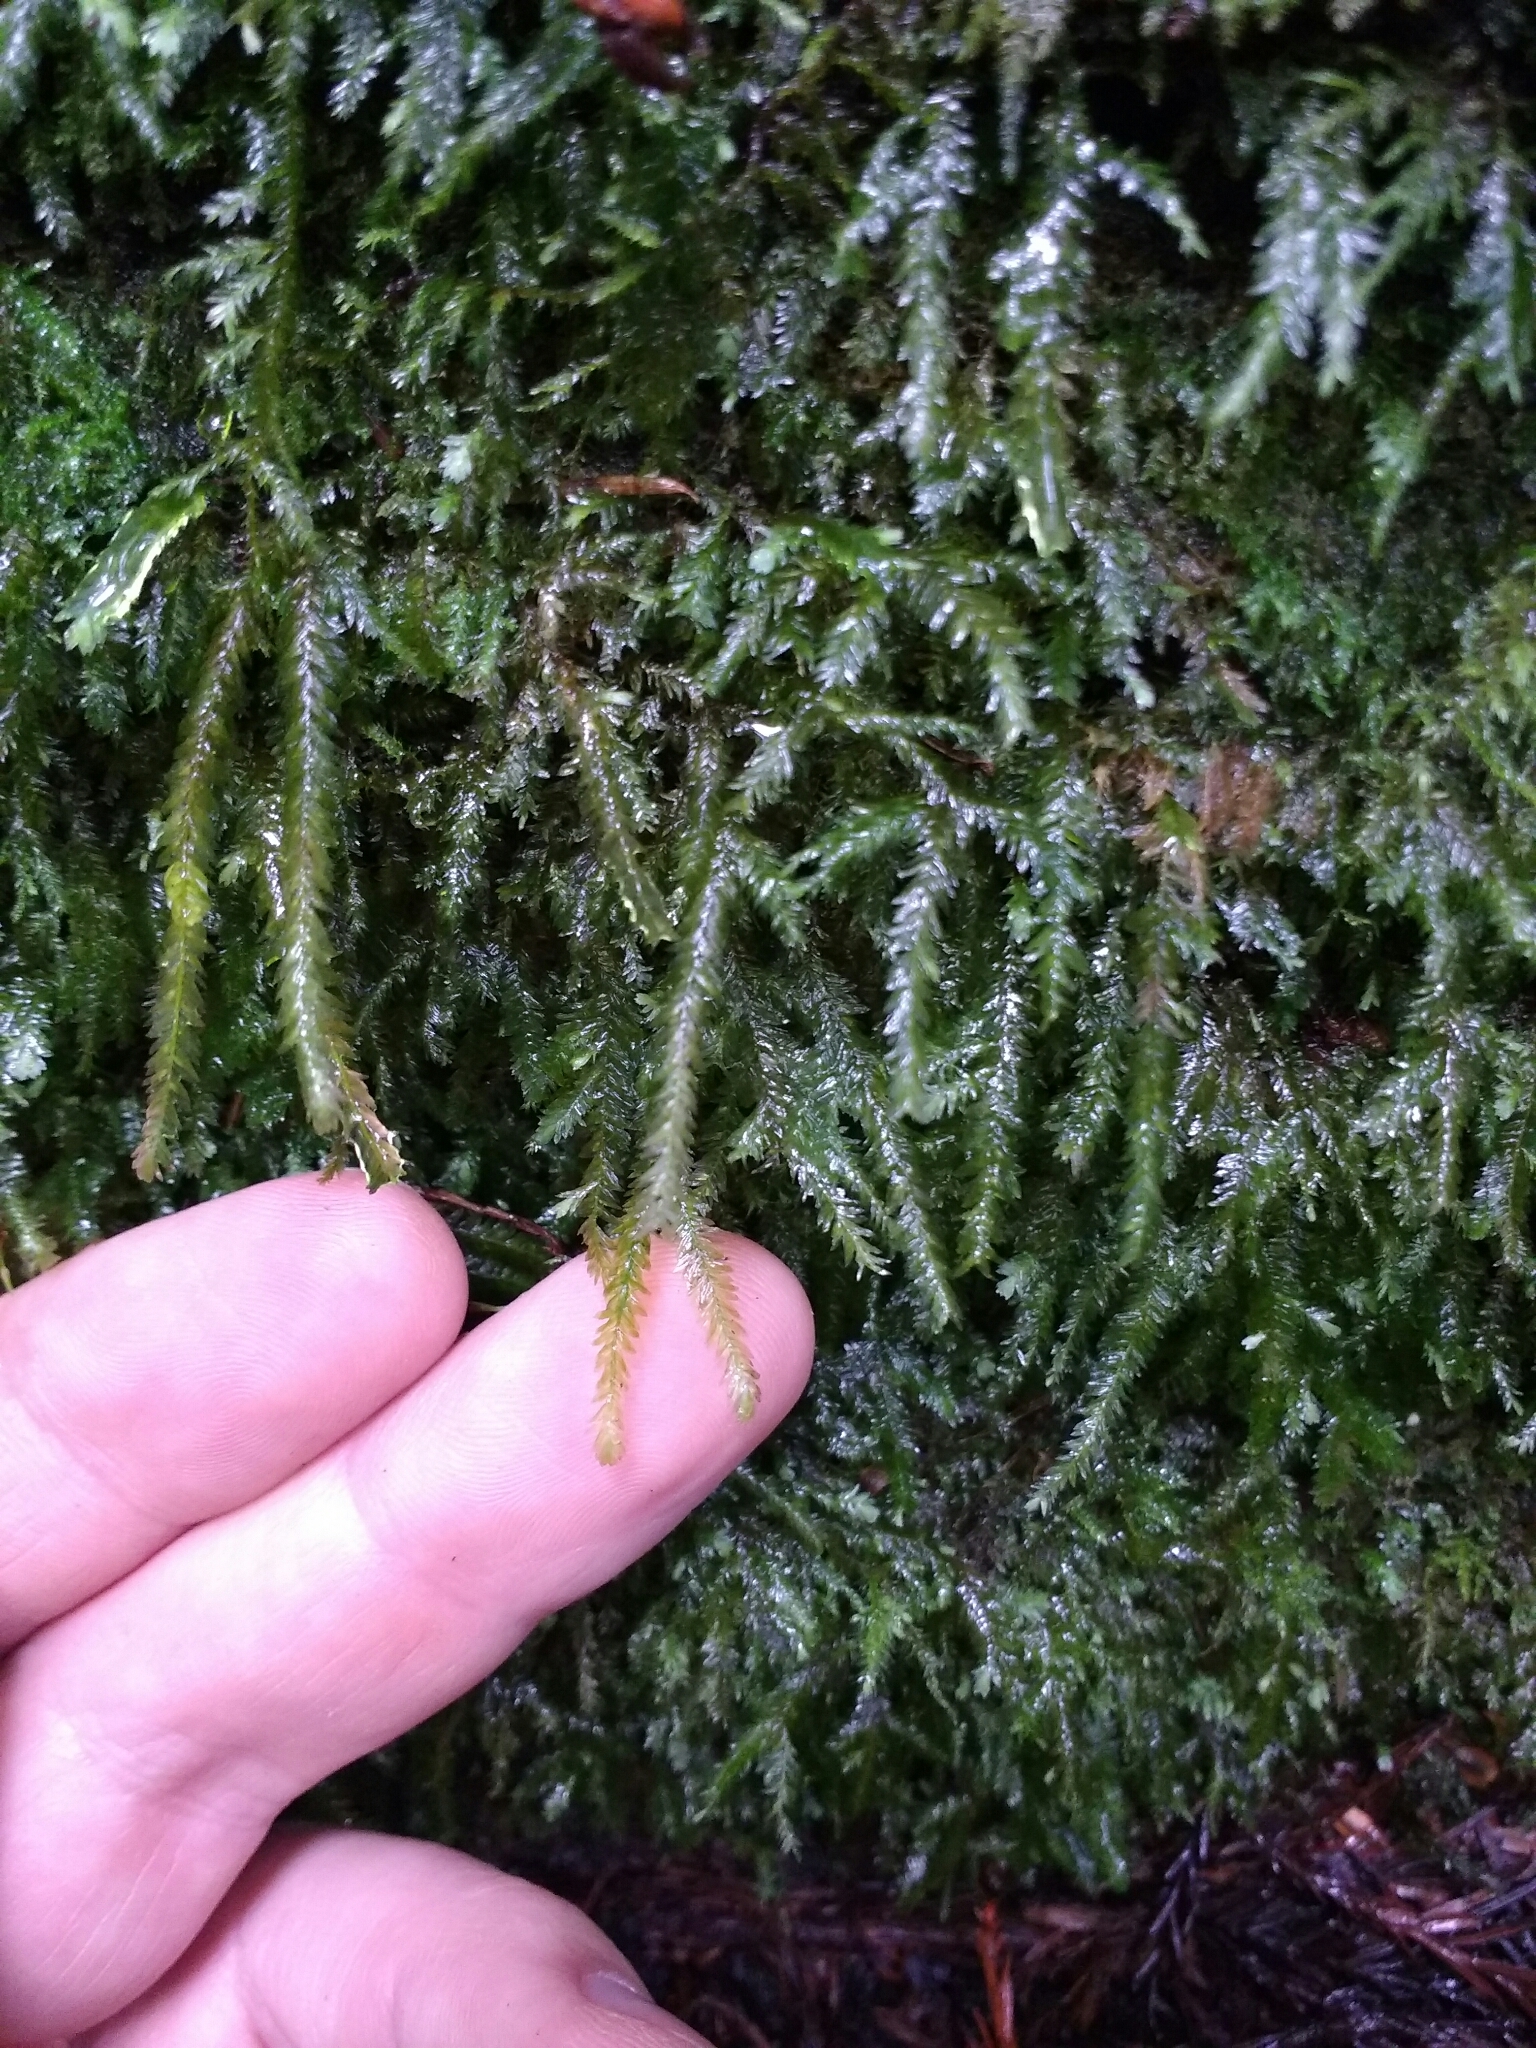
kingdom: Plantae
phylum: Bryophyta
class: Bryopsida
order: Hypnales
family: Neckeraceae
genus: Dannorrisia
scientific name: Dannorrisia bigelovii
